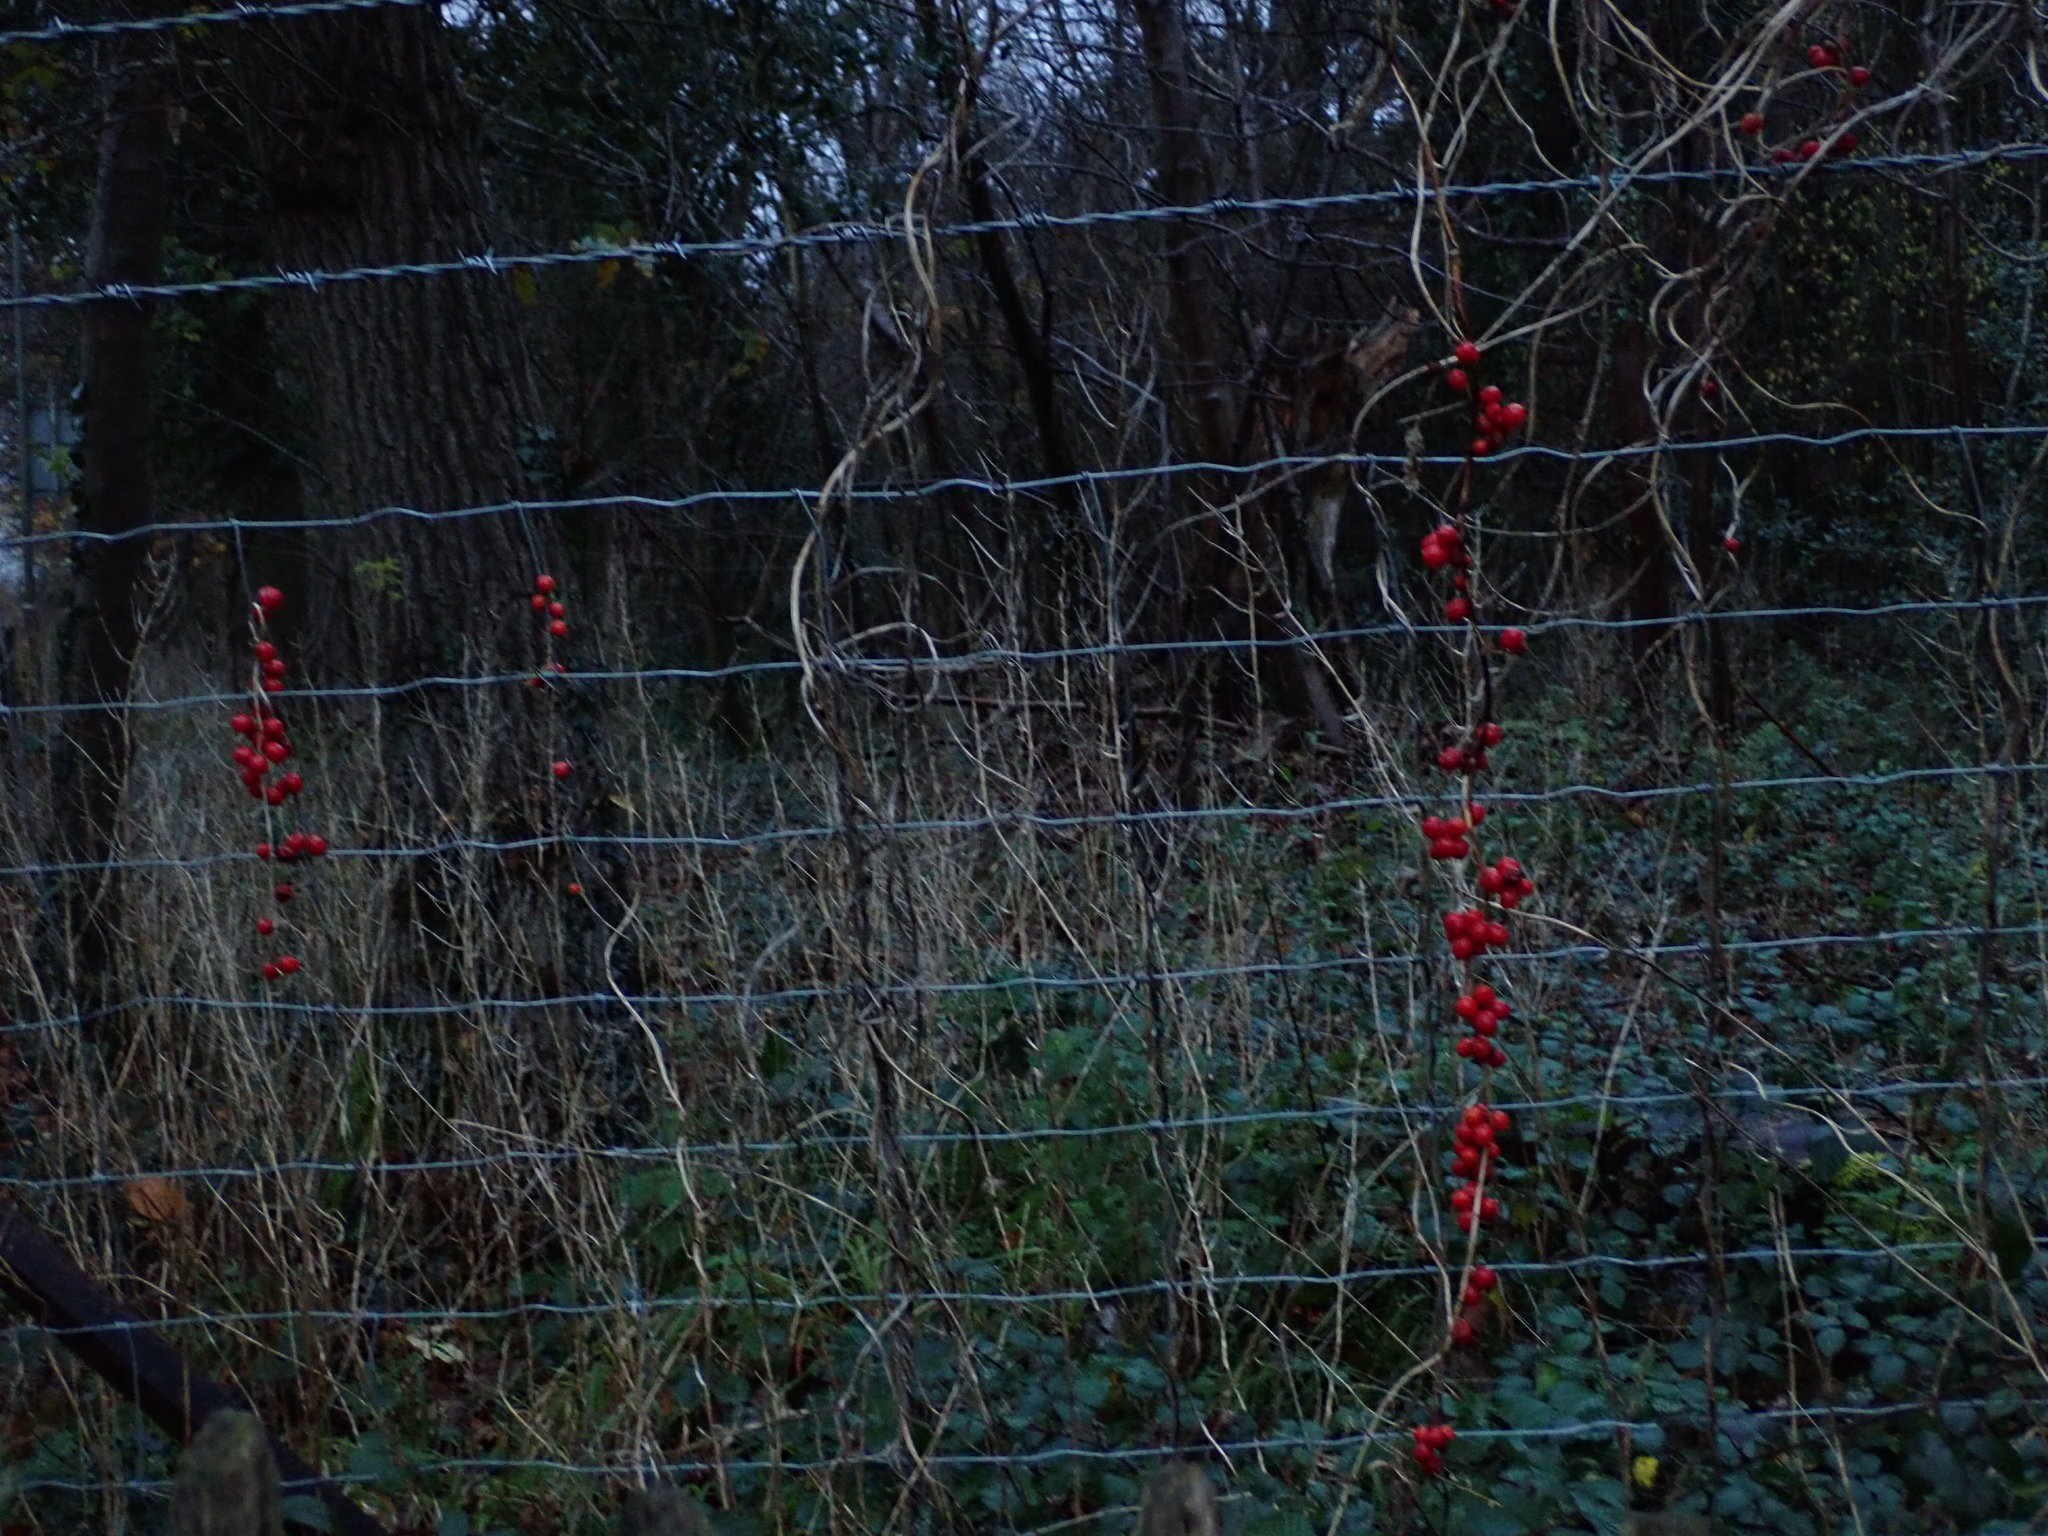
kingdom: Plantae
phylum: Tracheophyta
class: Liliopsida
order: Dioscoreales
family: Dioscoreaceae
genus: Dioscorea
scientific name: Dioscorea communis
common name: Black-bindweed
